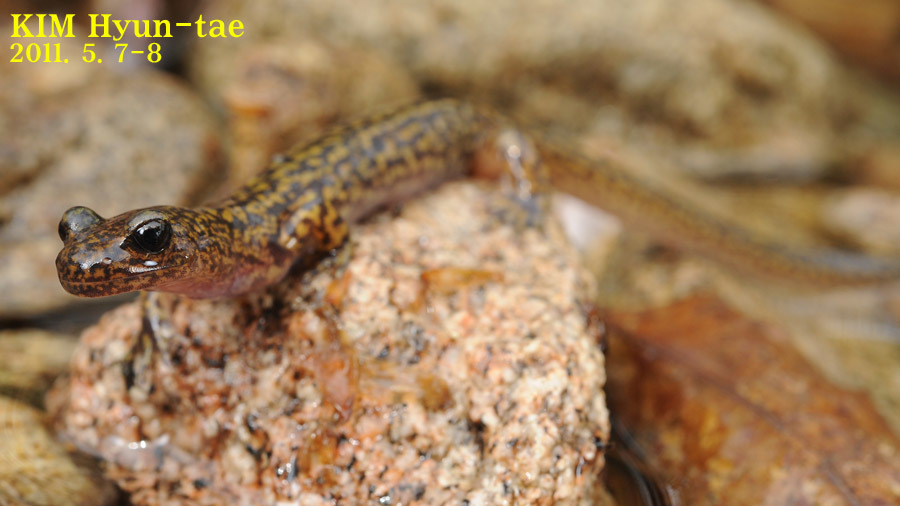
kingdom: Animalia
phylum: Chordata
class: Amphibia
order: Caudata
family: Hynobiidae
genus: Onychodactylus
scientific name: Onychodactylus koreanus
